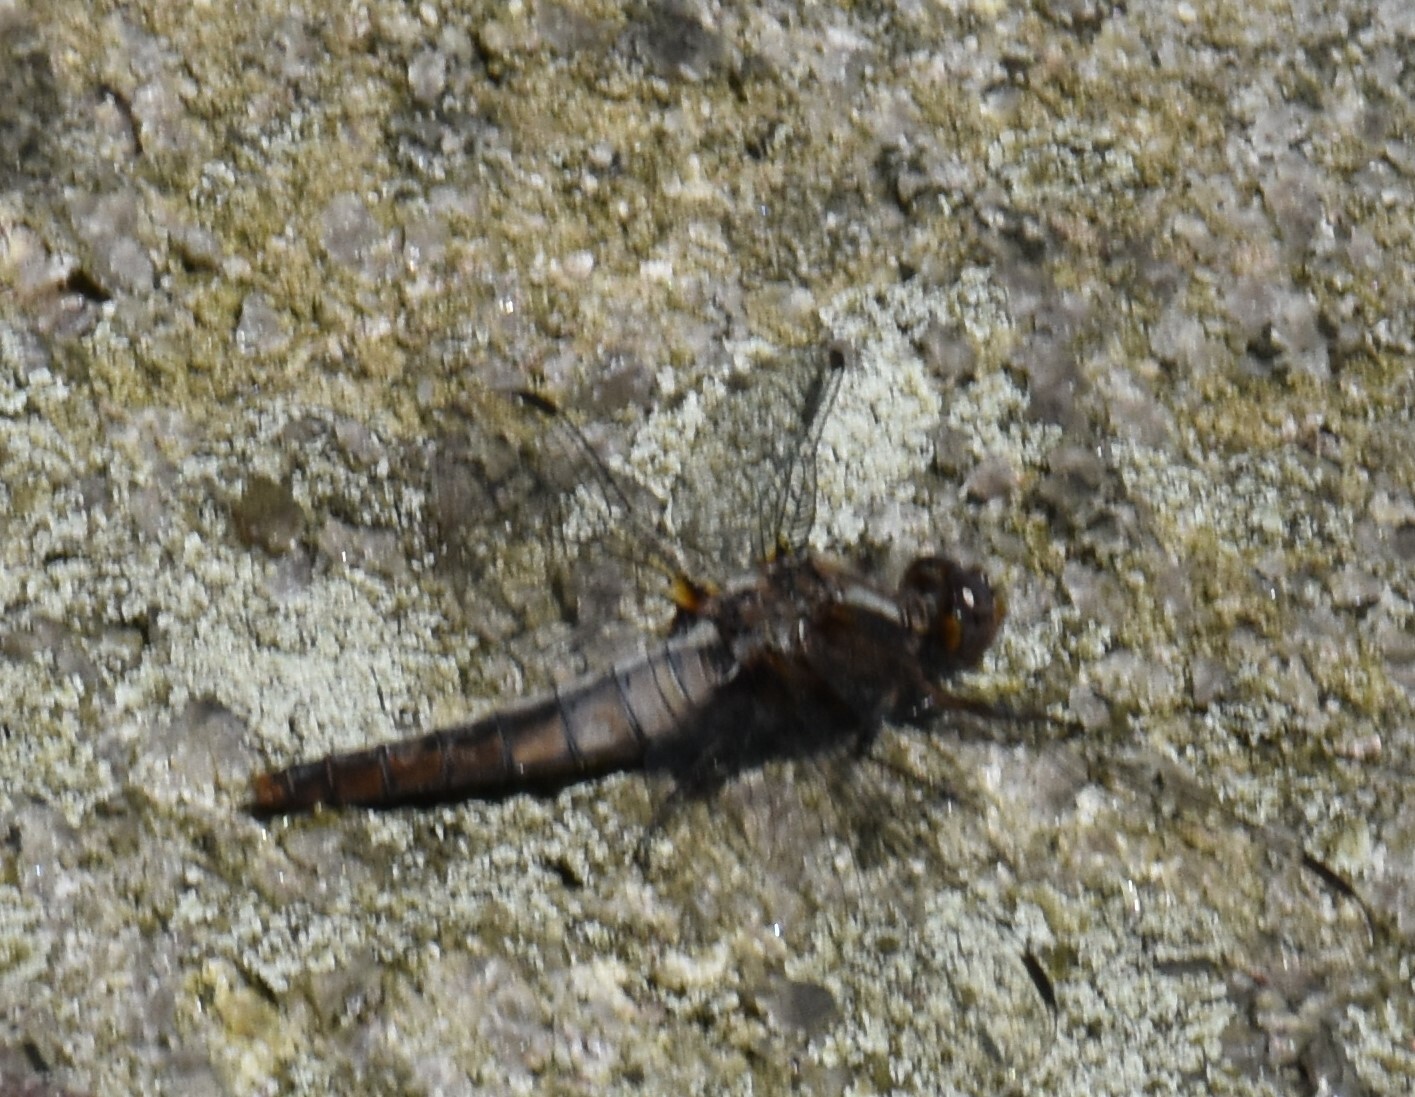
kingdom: Animalia
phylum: Arthropoda
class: Insecta
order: Odonata
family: Libellulidae
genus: Ladona
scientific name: Ladona julia
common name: Chalk-fronted corporal
